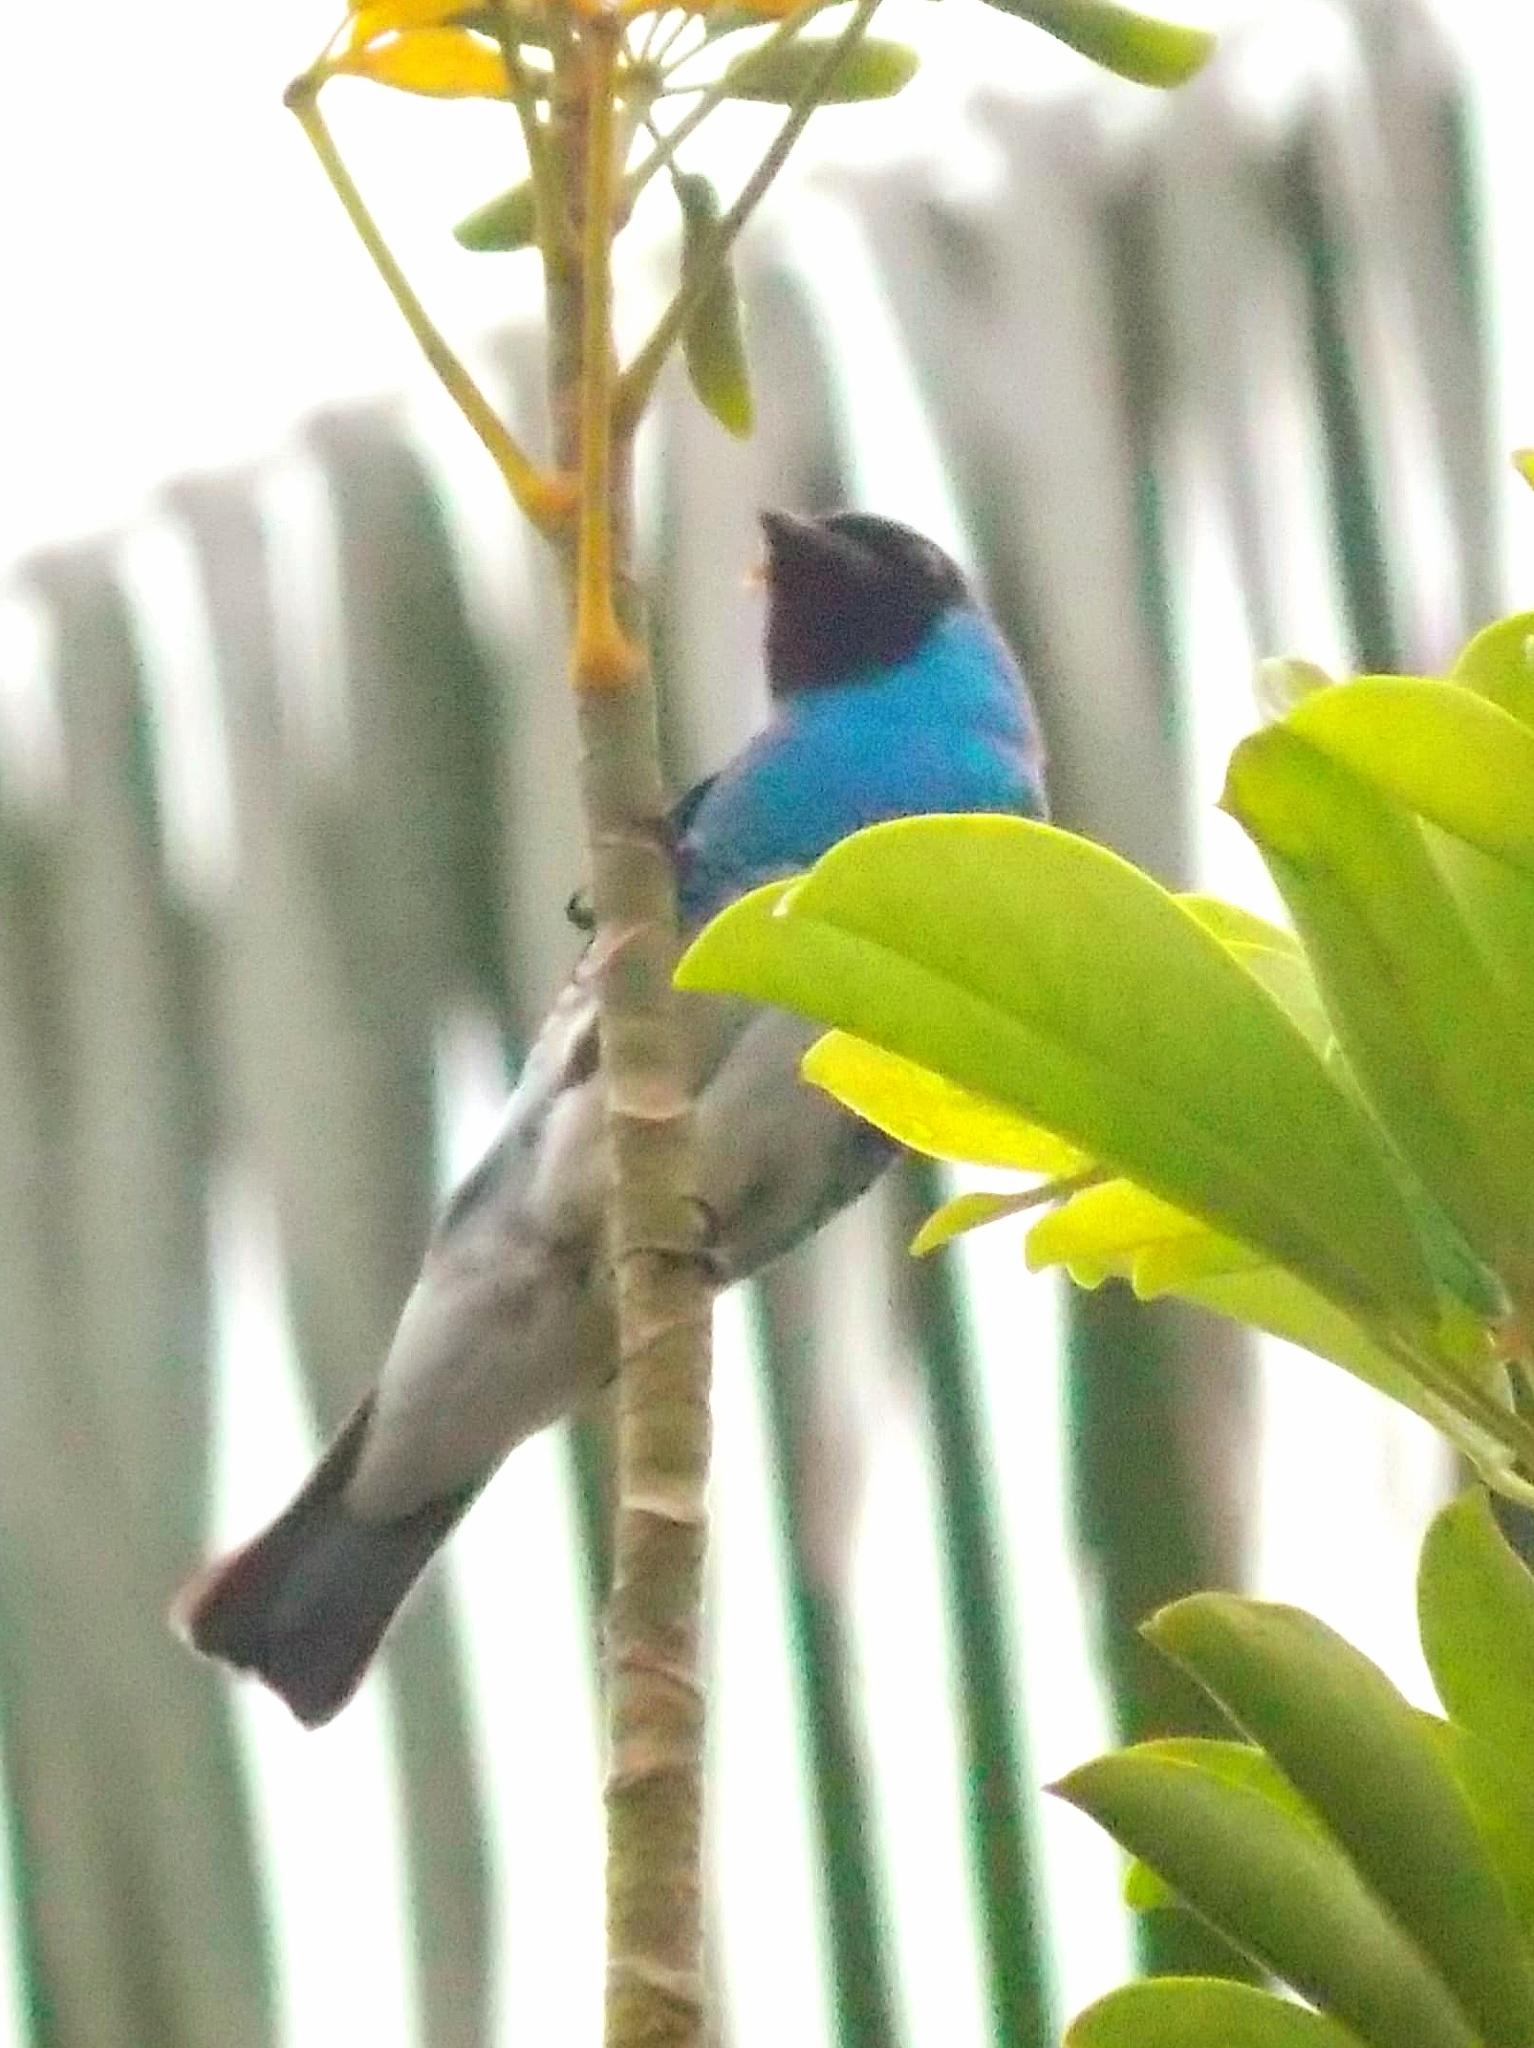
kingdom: Animalia
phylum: Chordata
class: Aves
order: Passeriformes
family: Thraupidae
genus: Tersina
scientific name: Tersina viridis
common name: Swallow tanager
